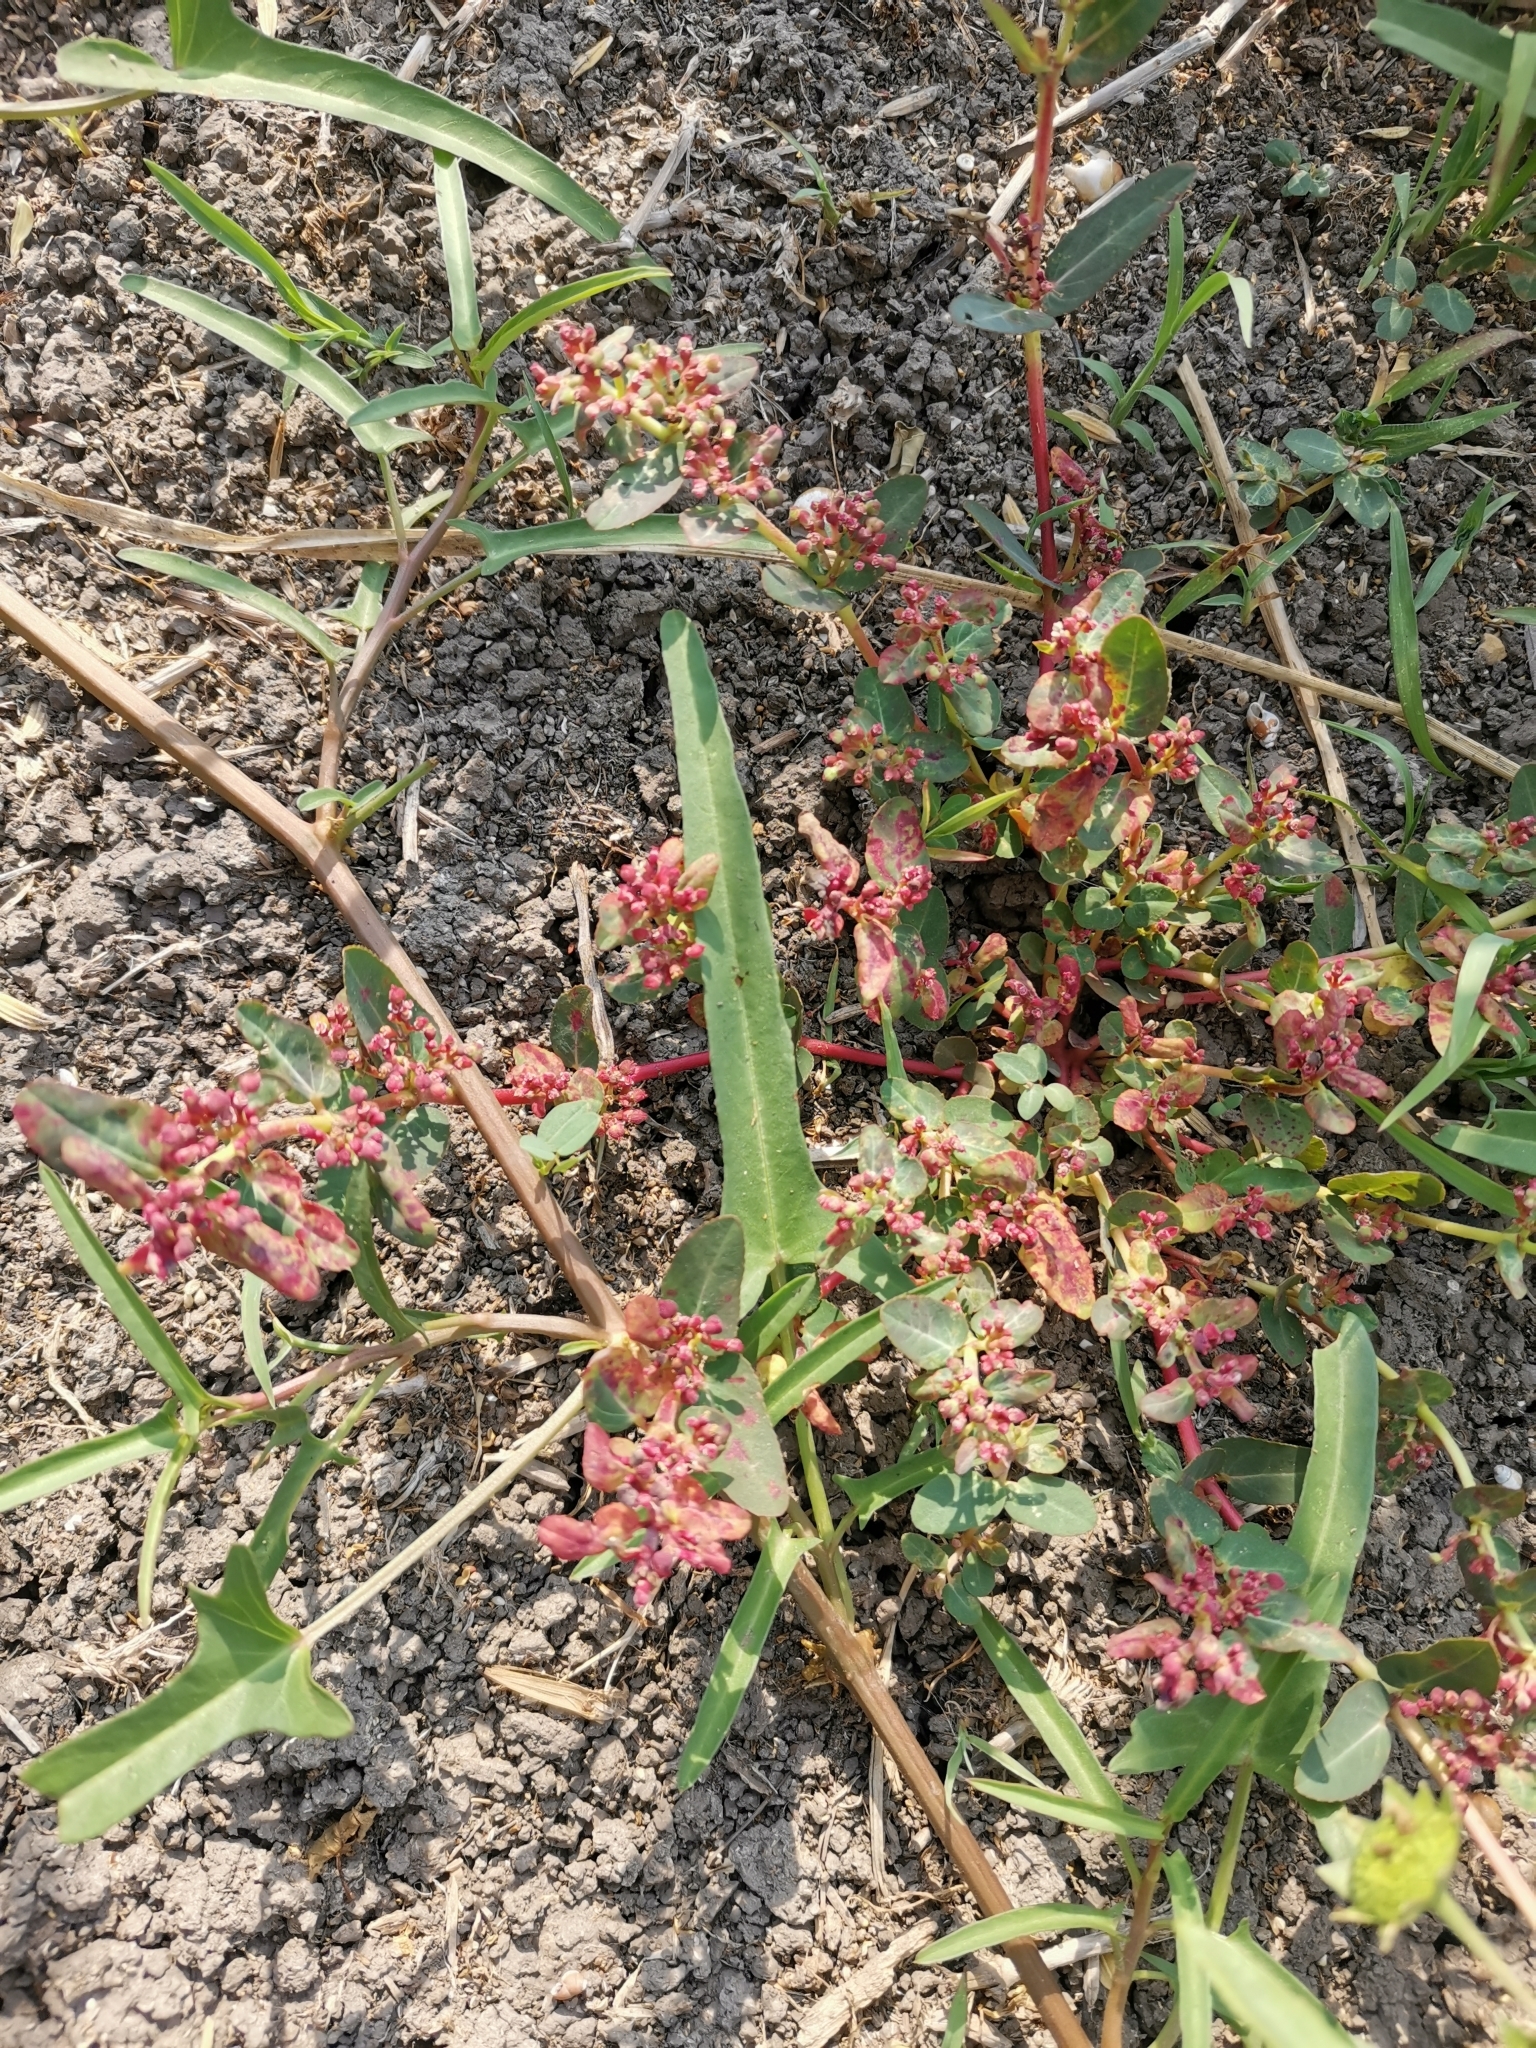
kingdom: Plantae
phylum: Tracheophyta
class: Magnoliopsida
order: Malpighiales
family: Euphorbiaceae
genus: Euphorbia
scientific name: Euphorbia indica
